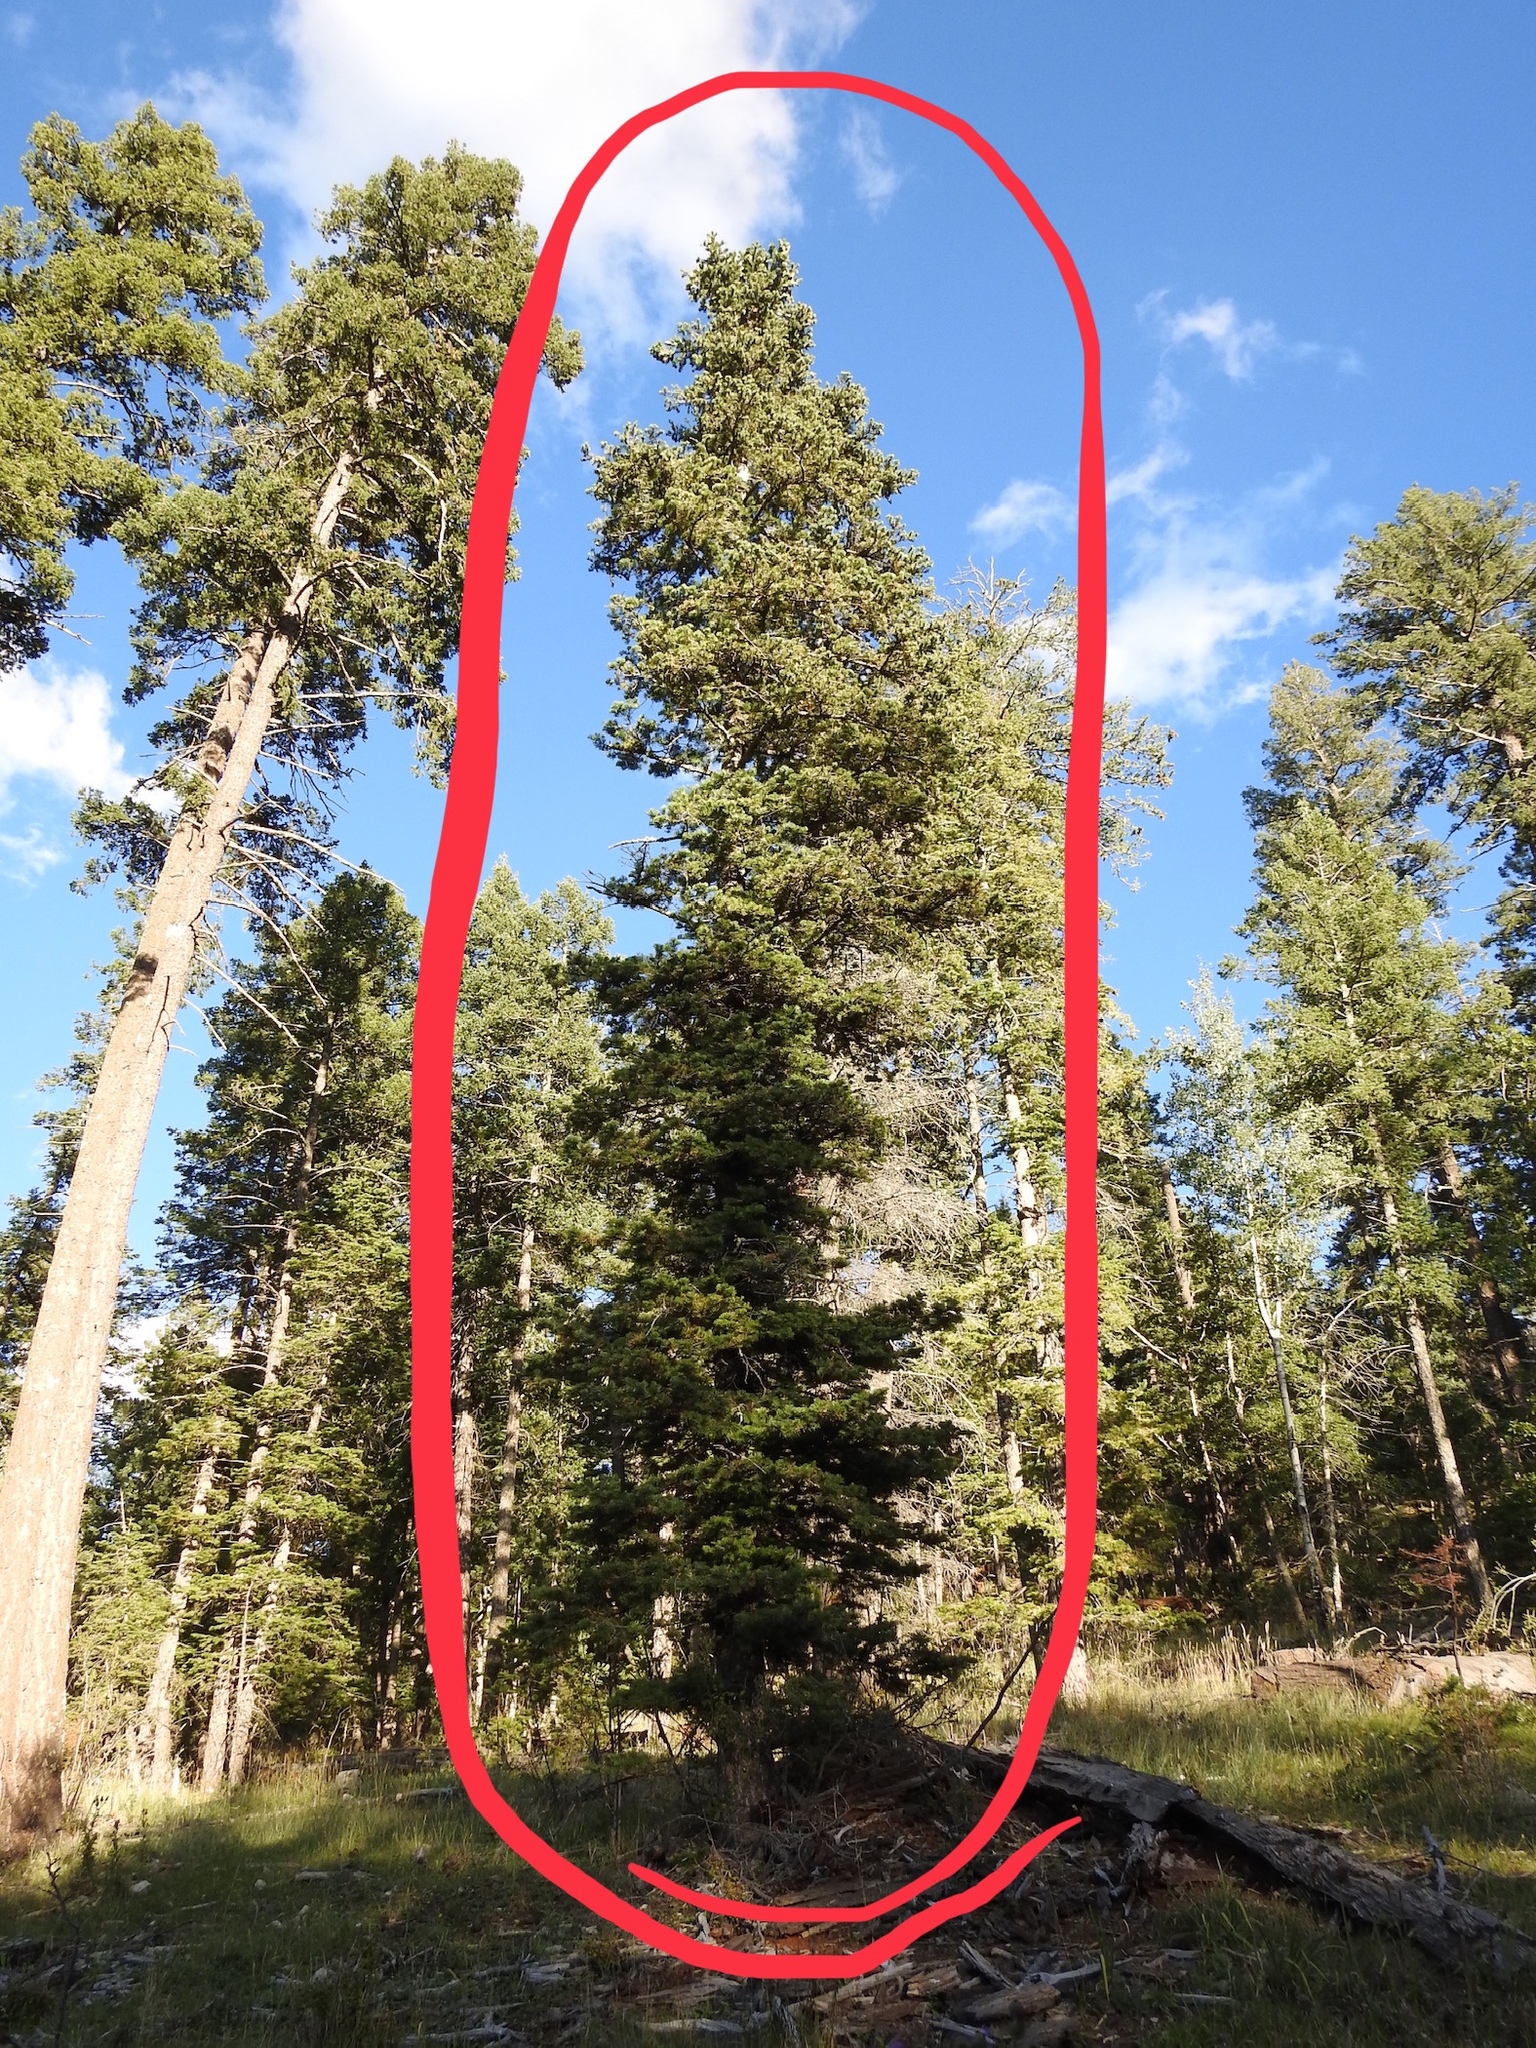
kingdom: Plantae
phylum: Tracheophyta
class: Pinopsida
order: Pinales
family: Pinaceae
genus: Abies
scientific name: Abies concolor
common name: Colorado fir
